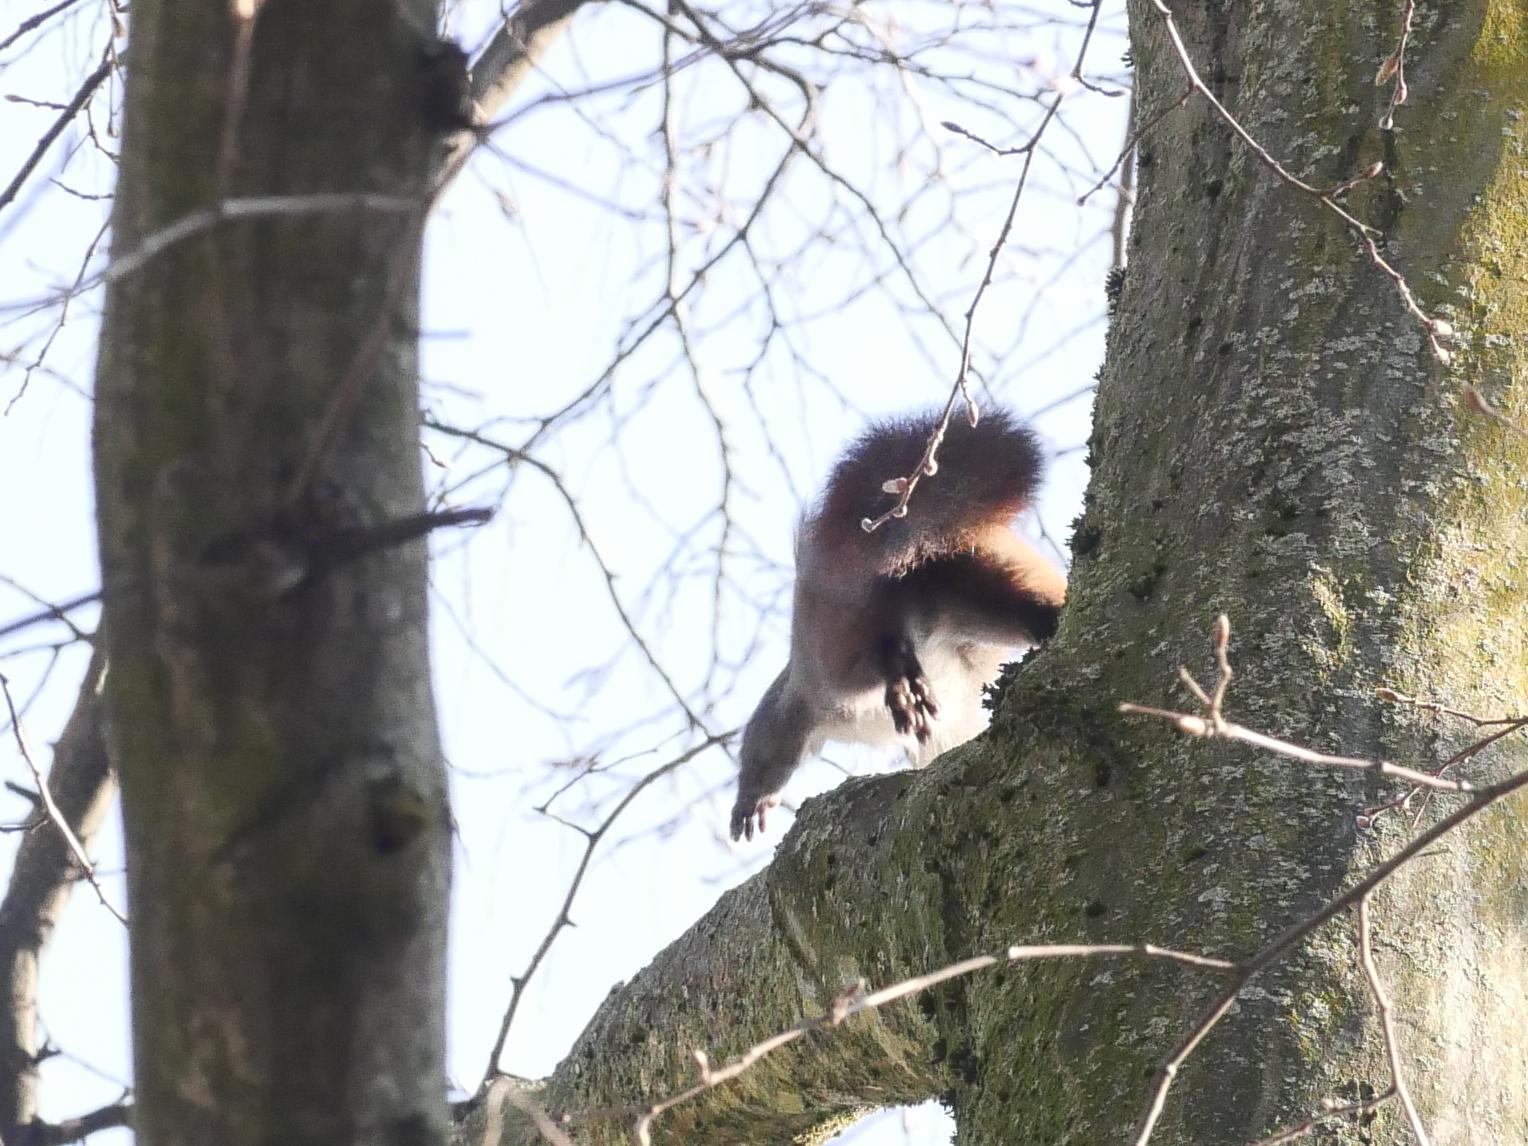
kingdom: Animalia
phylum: Chordata
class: Mammalia
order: Rodentia
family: Sciuridae
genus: Sciurus
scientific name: Sciurus vulgaris
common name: Eurasian red squirrel
